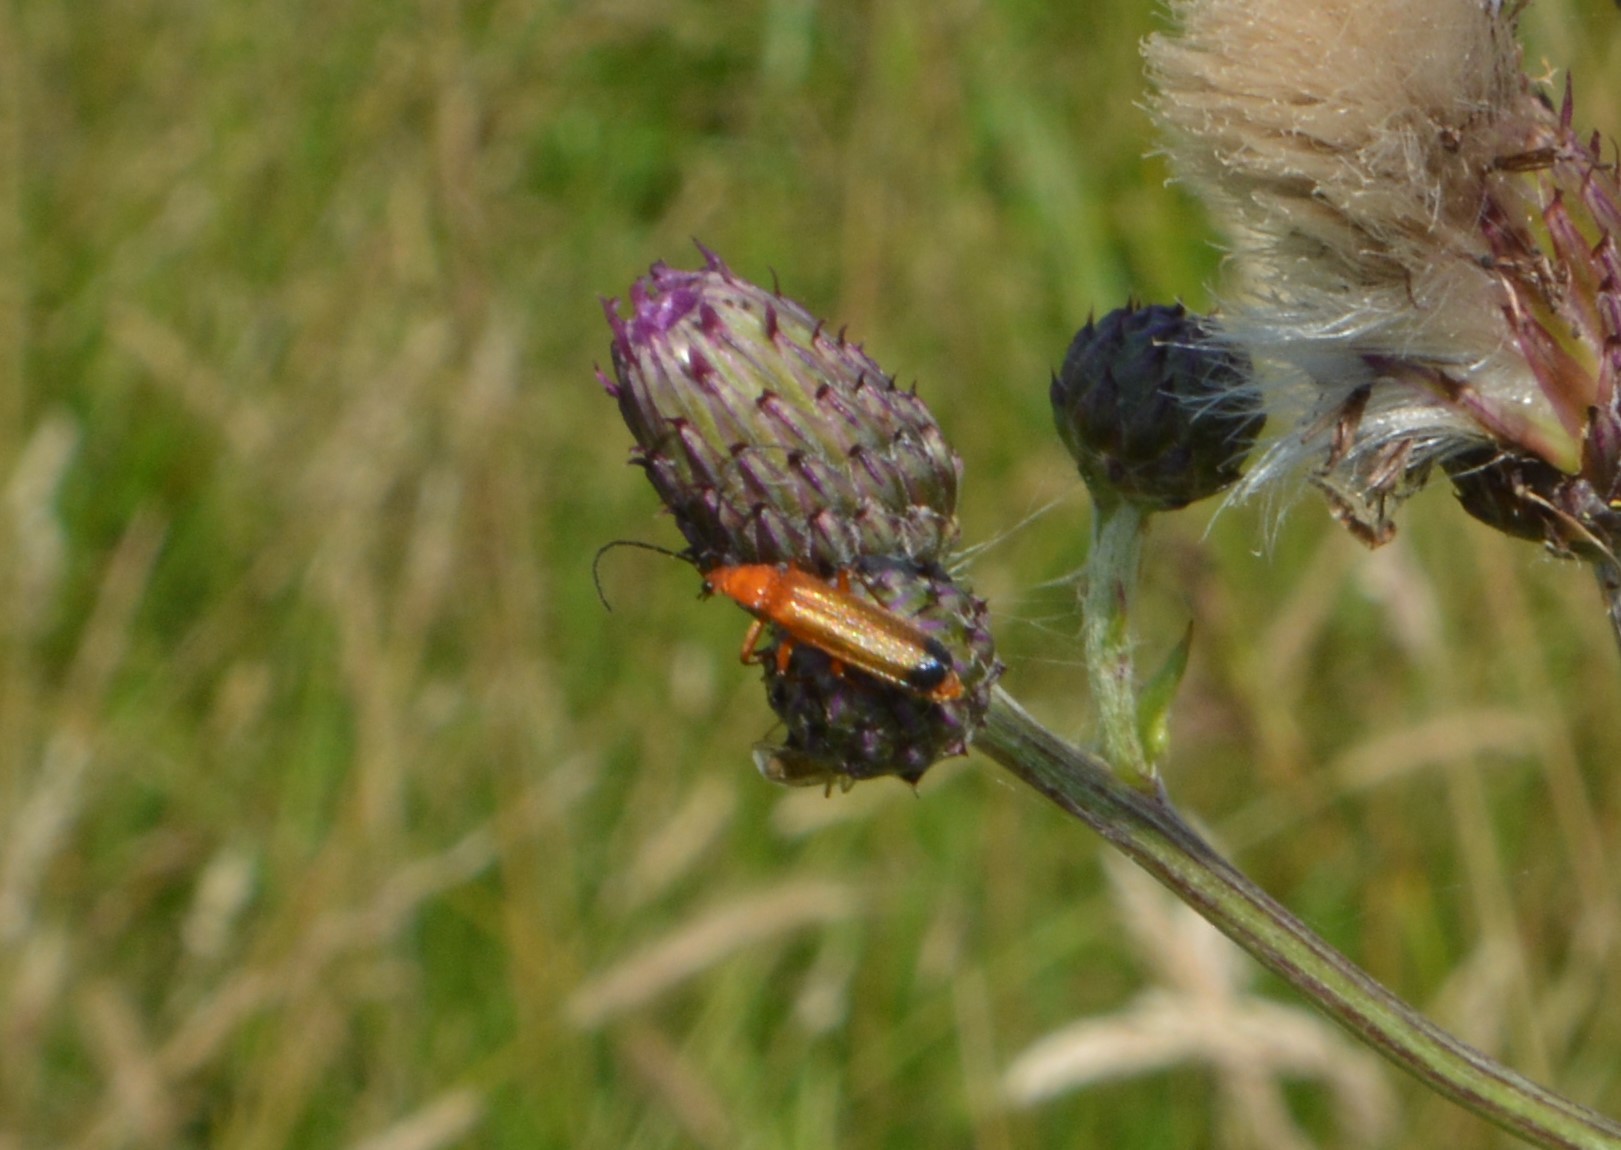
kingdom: Animalia
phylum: Arthropoda
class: Insecta
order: Coleoptera
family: Cantharidae
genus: Rhagonycha
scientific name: Rhagonycha fulva
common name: Common red soldier beetle
